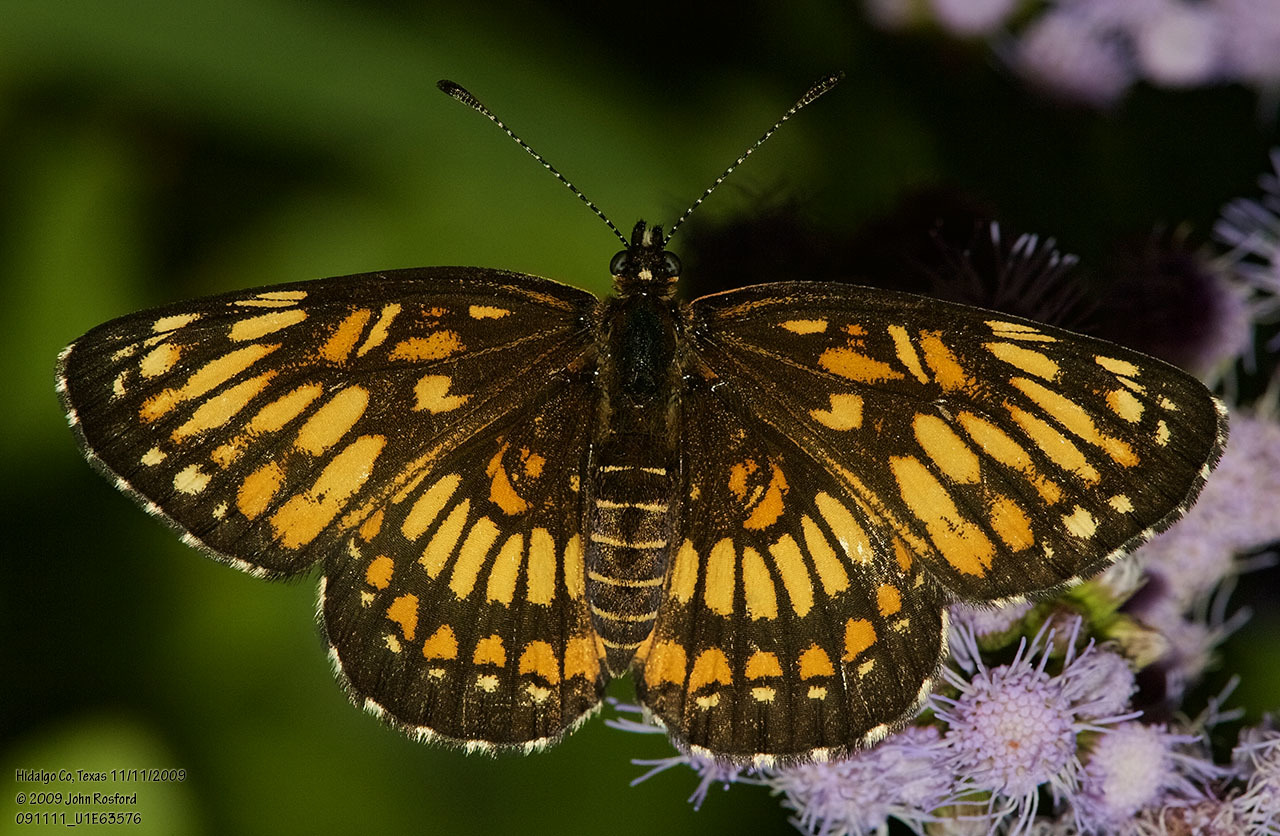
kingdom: Animalia
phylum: Arthropoda
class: Insecta
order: Lepidoptera
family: Nymphalidae
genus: Thessalia
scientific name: Thessalia theona
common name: Nymphalid moth
